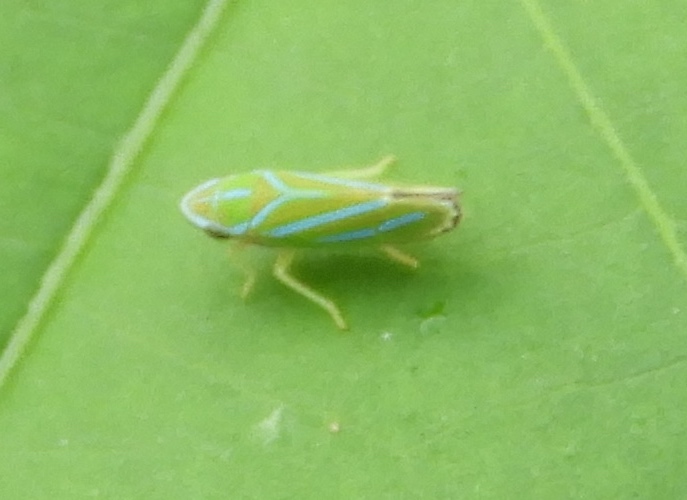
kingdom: Animalia
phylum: Arthropoda
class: Insecta
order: Hemiptera
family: Cicadellidae
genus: Graphocephala
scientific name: Graphocephala apicata
